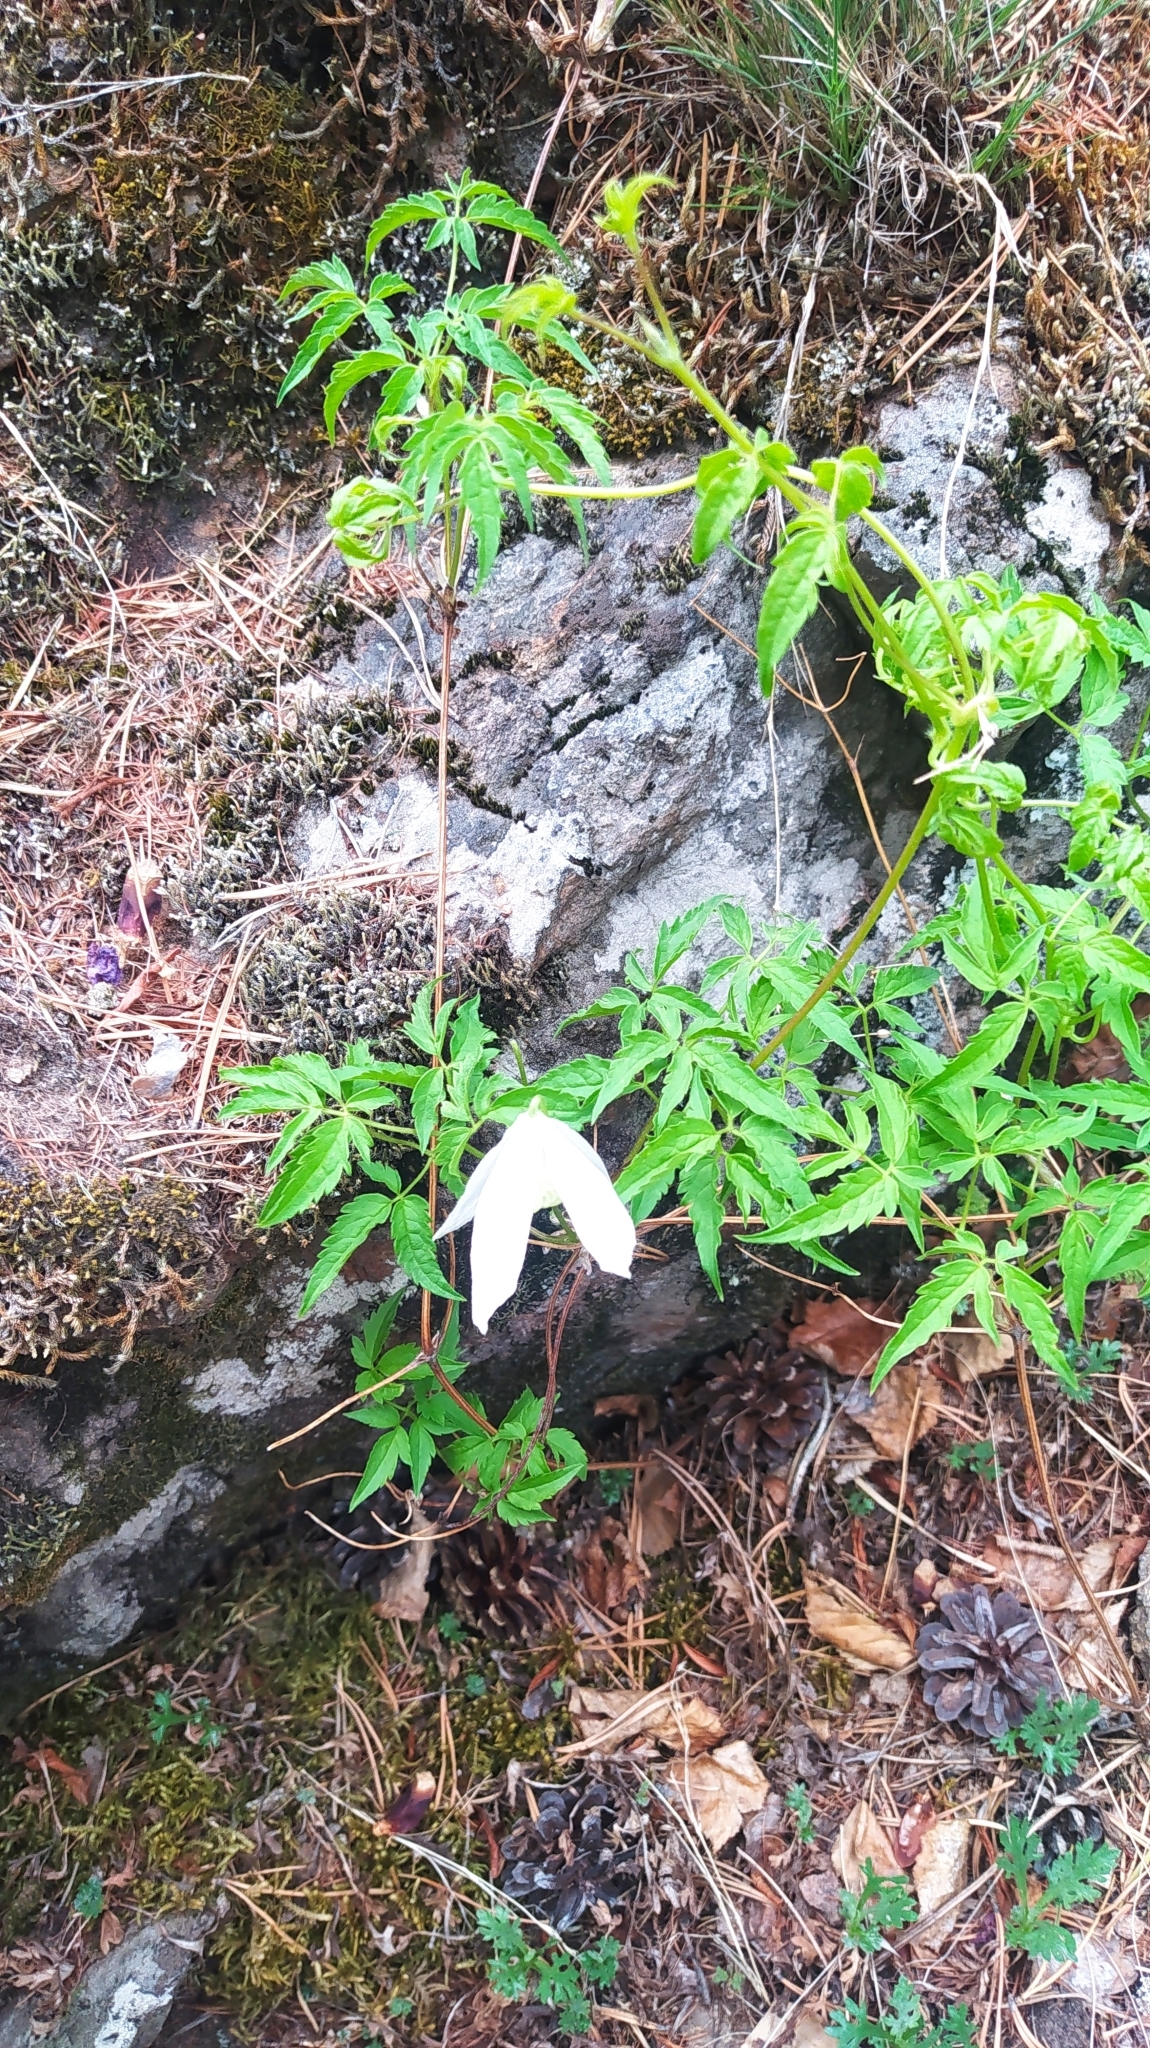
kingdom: Plantae
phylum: Tracheophyta
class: Magnoliopsida
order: Ranunculales
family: Ranunculaceae
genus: Clematis
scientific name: Clematis sibirica
